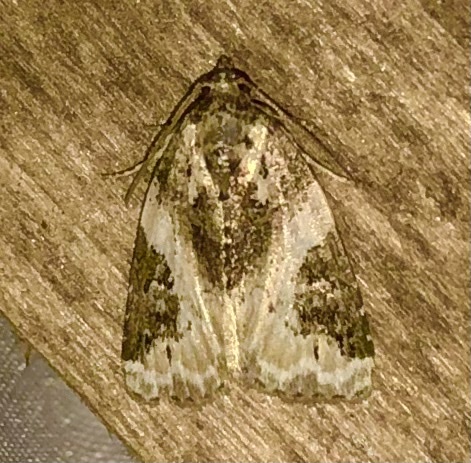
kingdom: Animalia
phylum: Arthropoda
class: Insecta
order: Lepidoptera
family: Noctuidae
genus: Pseudeustrotia
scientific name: Pseudeustrotia carneola
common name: Pink-barred lithacodia moth
